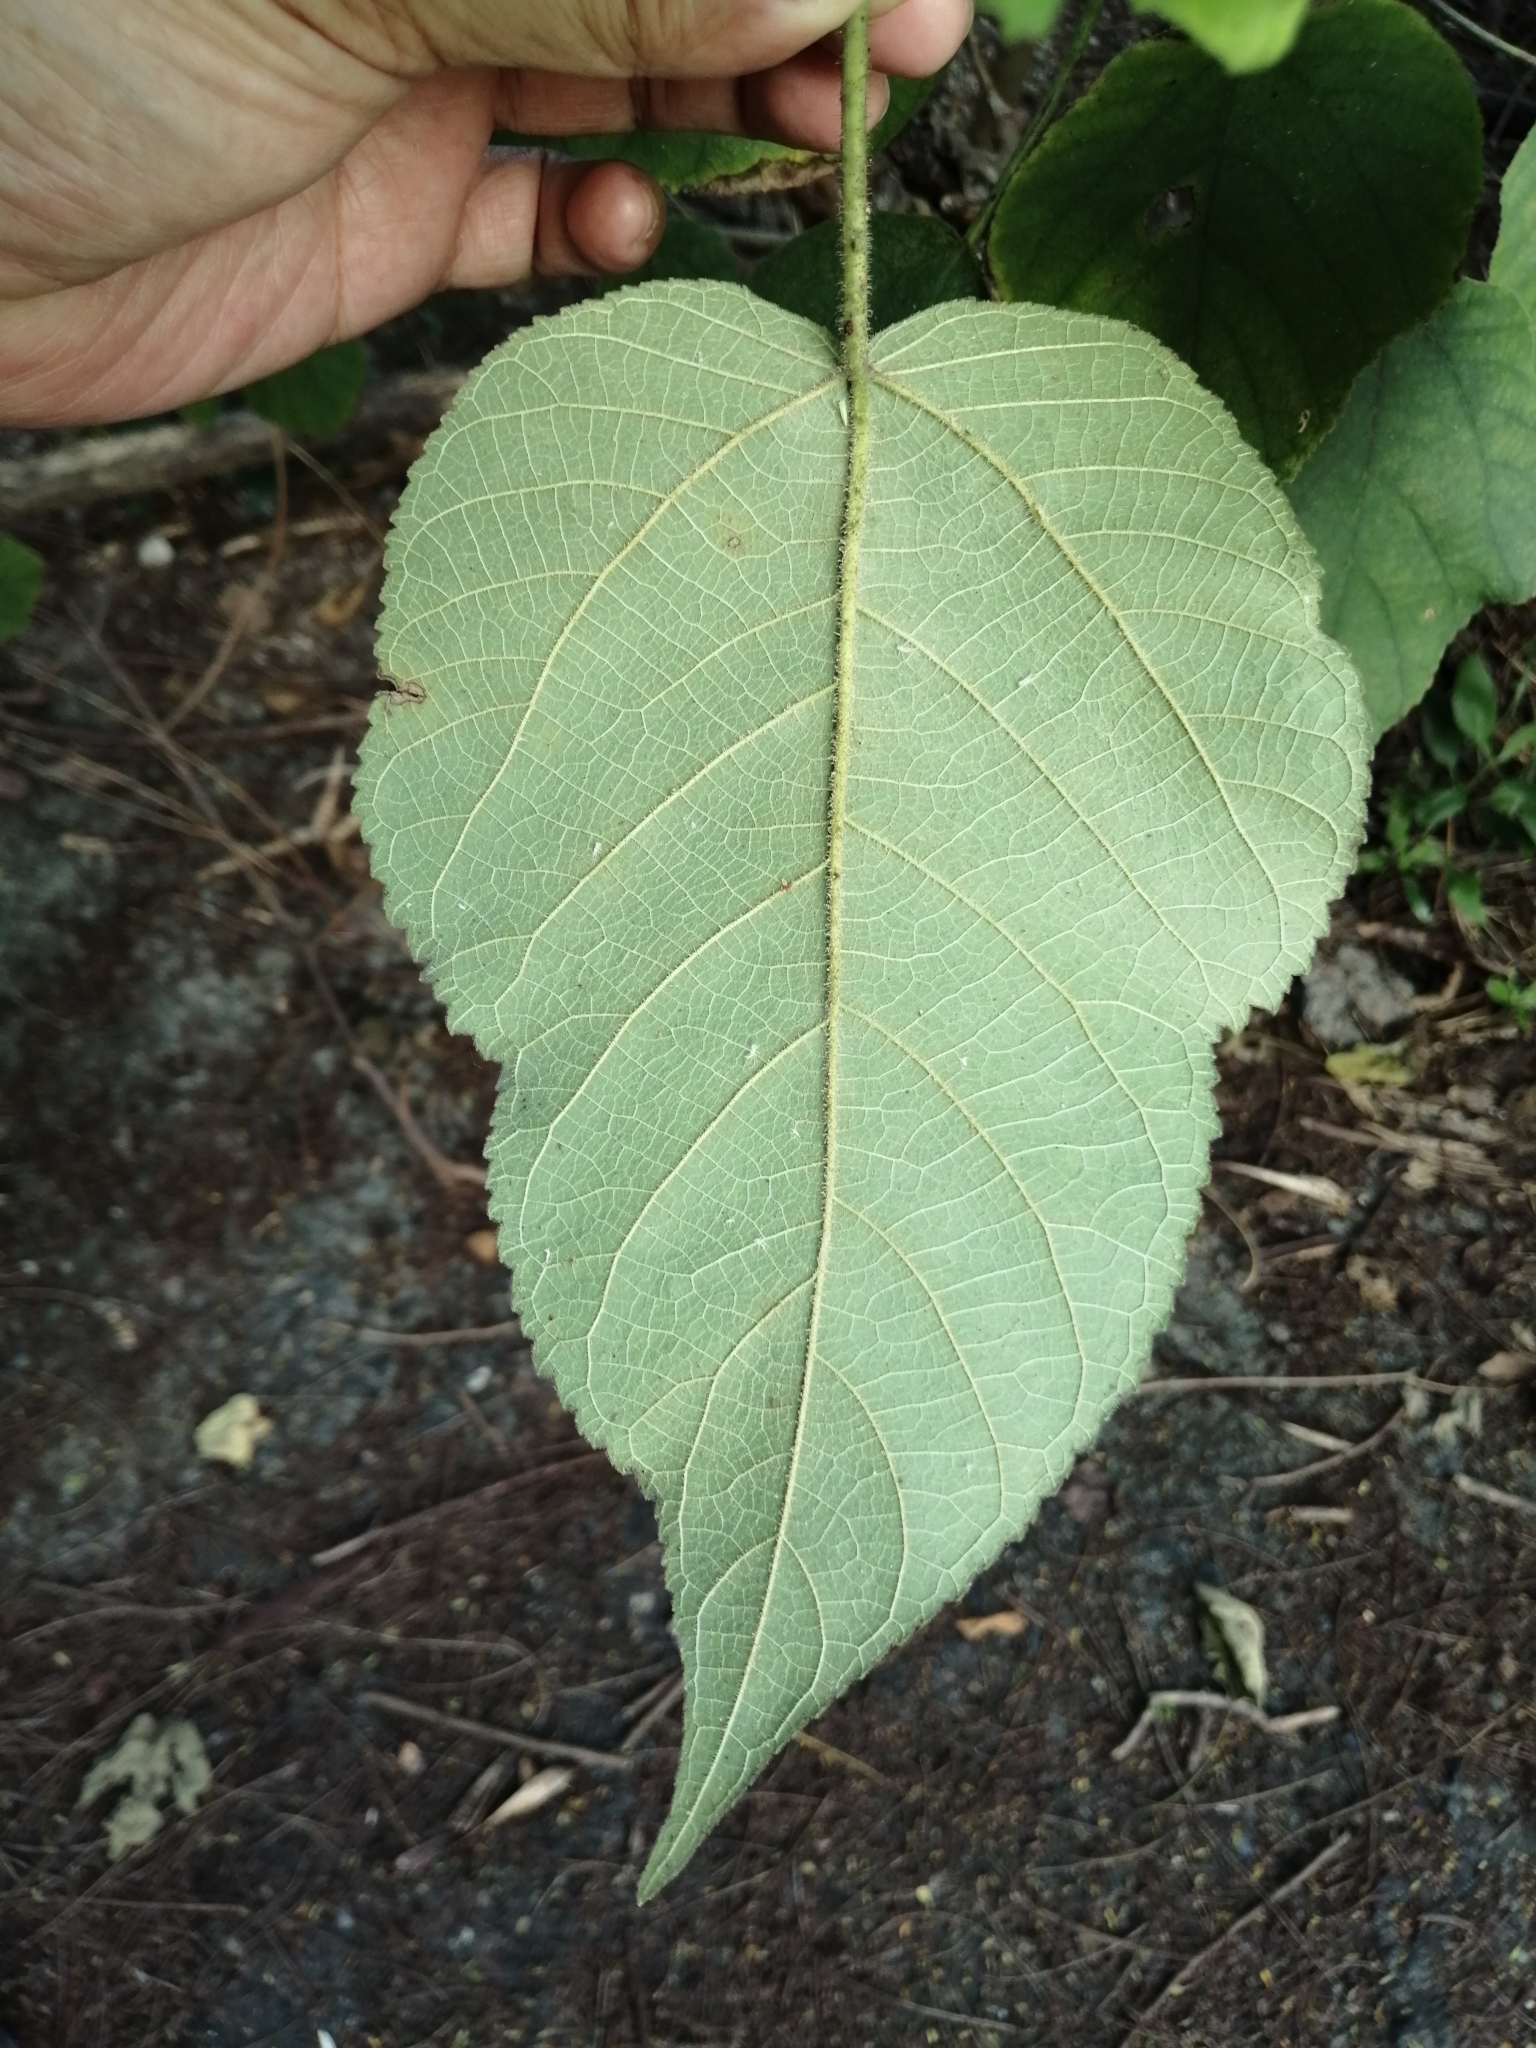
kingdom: Plantae
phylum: Tracheophyta
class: Magnoliopsida
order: Rosales
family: Moraceae
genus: Broussonetia
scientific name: Broussonetia papyrifera
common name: Paper mulberry
